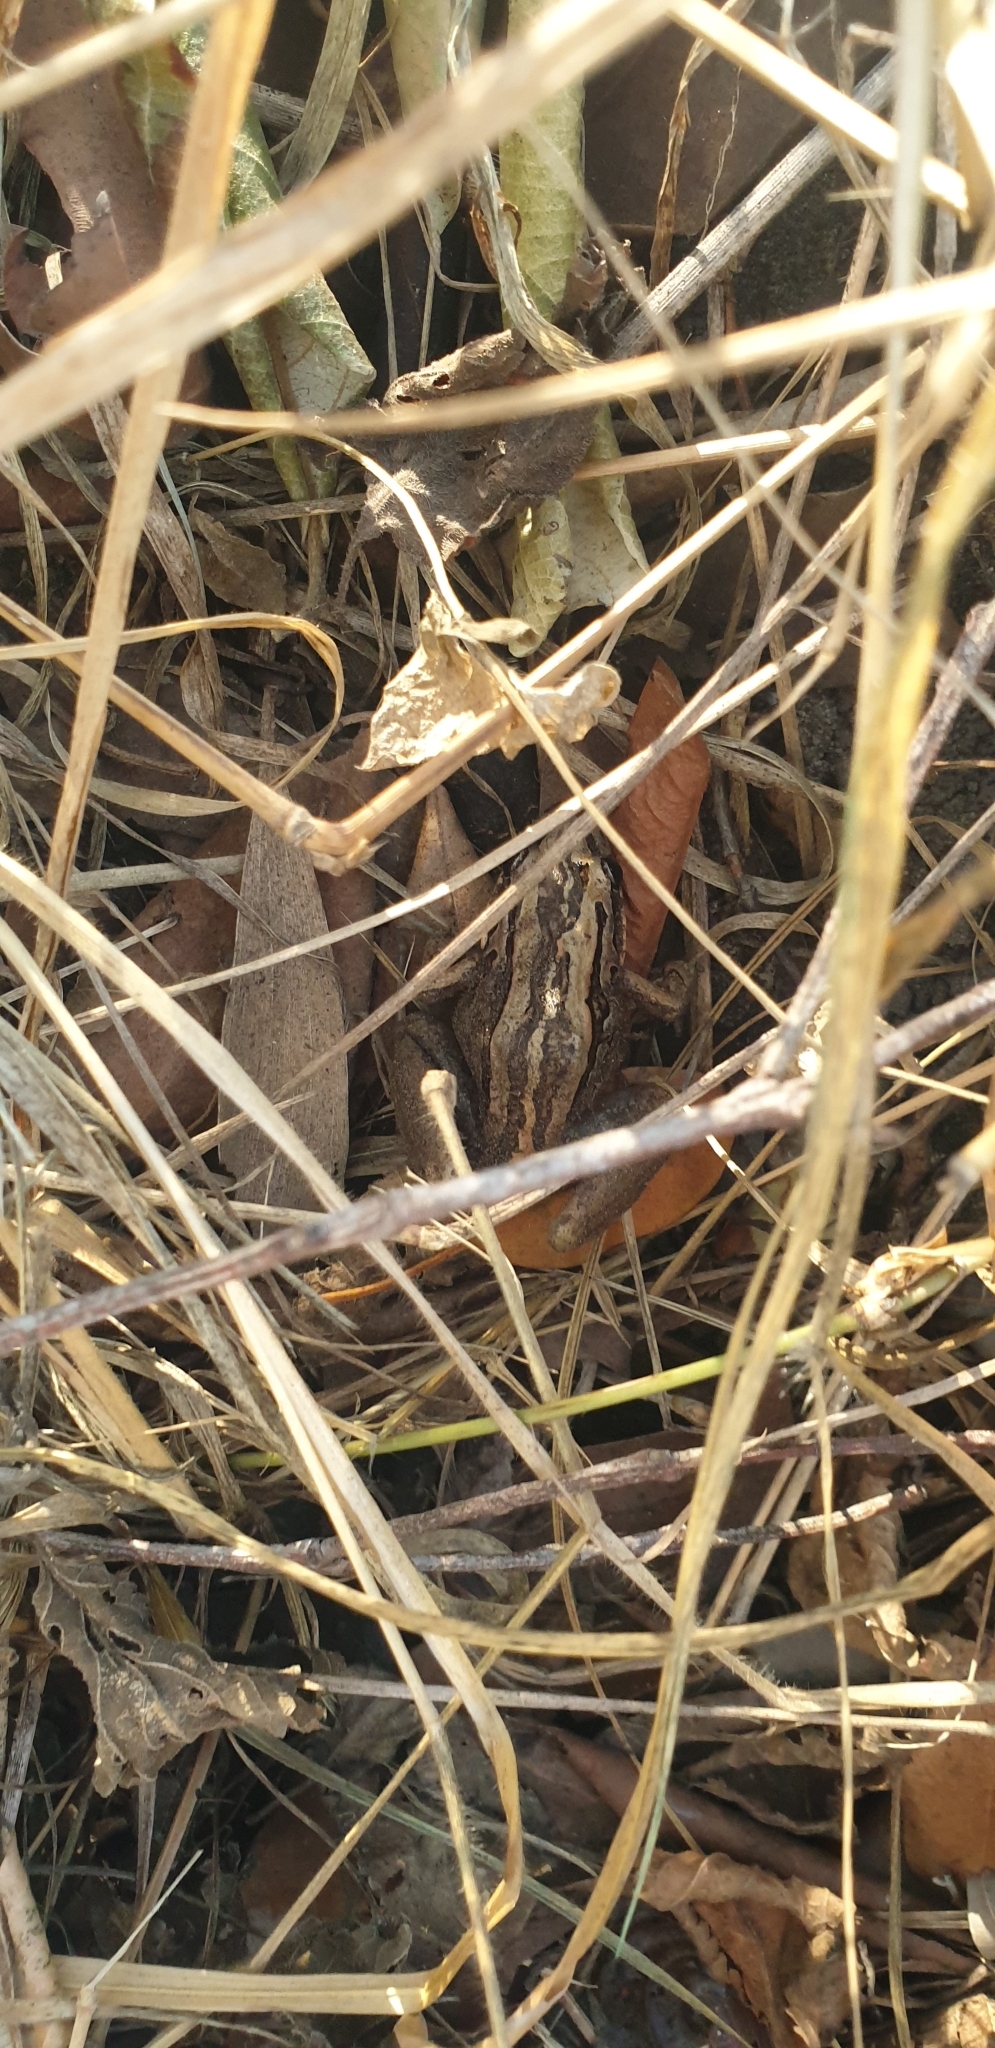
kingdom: Animalia
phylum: Chordata
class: Amphibia
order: Anura
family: Limnodynastidae
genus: Limnodynastes
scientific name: Limnodynastes peronii
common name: Brown frog
